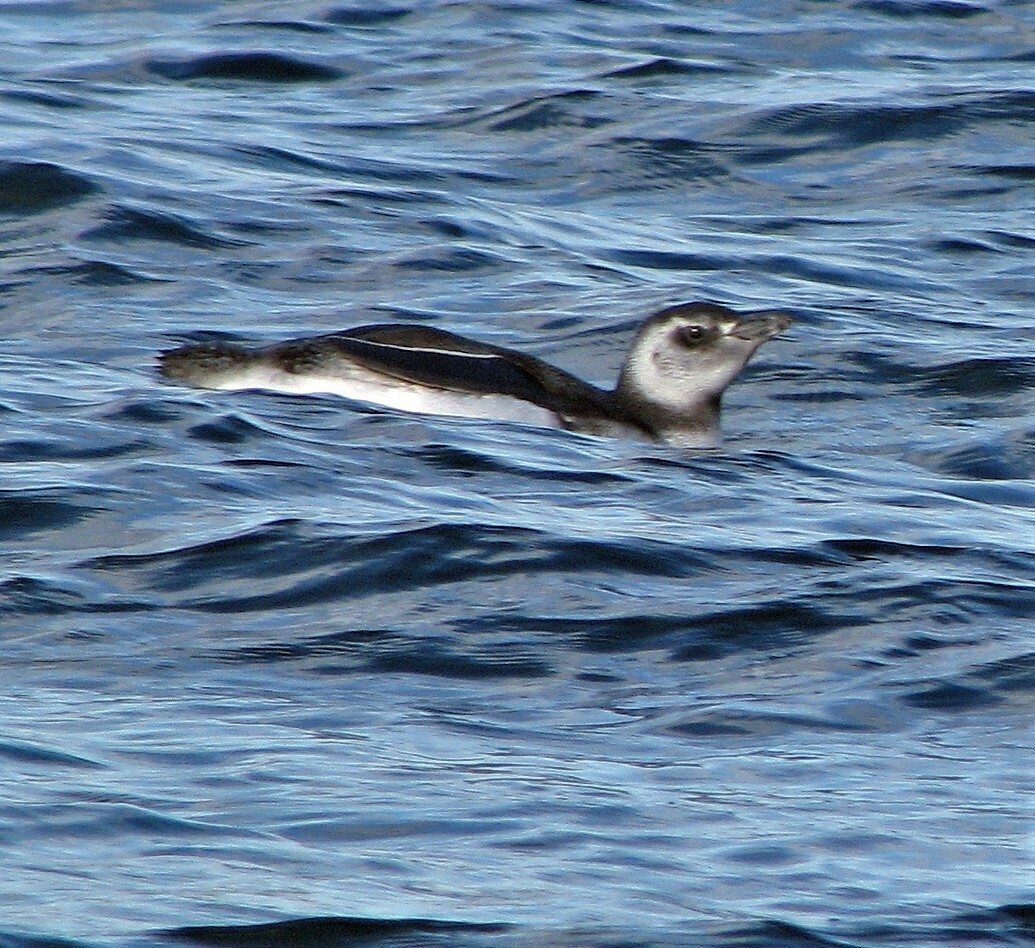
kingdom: Animalia
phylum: Chordata
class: Aves
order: Sphenisciformes
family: Spheniscidae
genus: Spheniscus
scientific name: Spheniscus magellanicus
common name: Magellanic penguin
